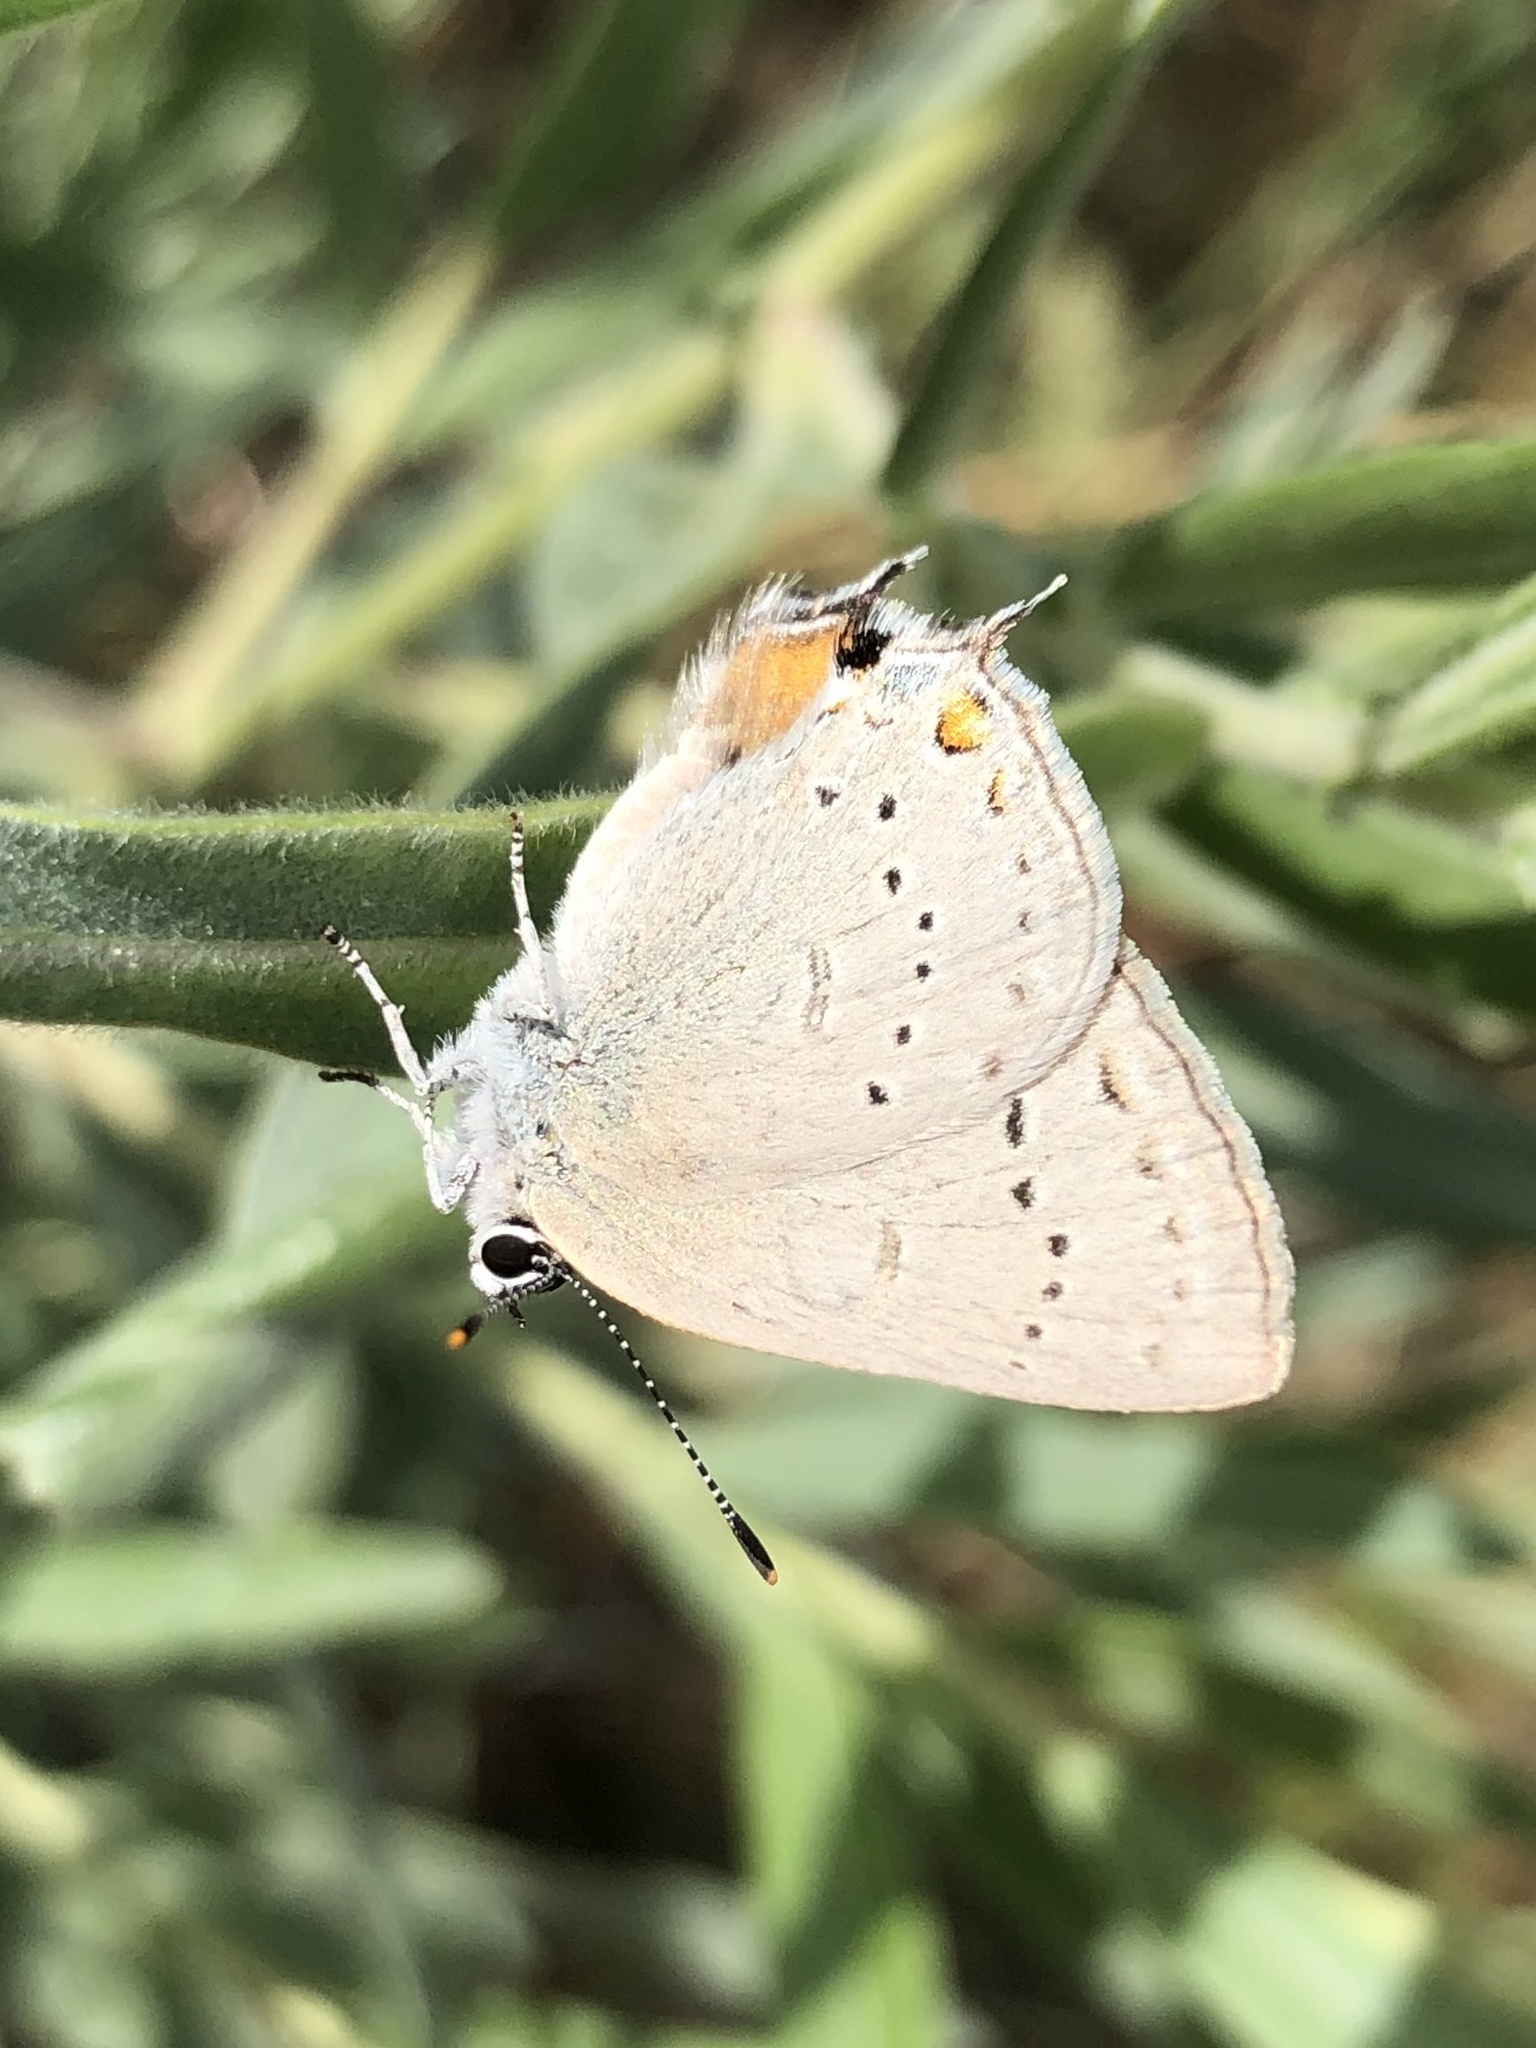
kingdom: Animalia
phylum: Arthropoda
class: Insecta
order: Lepidoptera
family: Lycaenidae
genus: Strymon
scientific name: Strymon sylvinus
